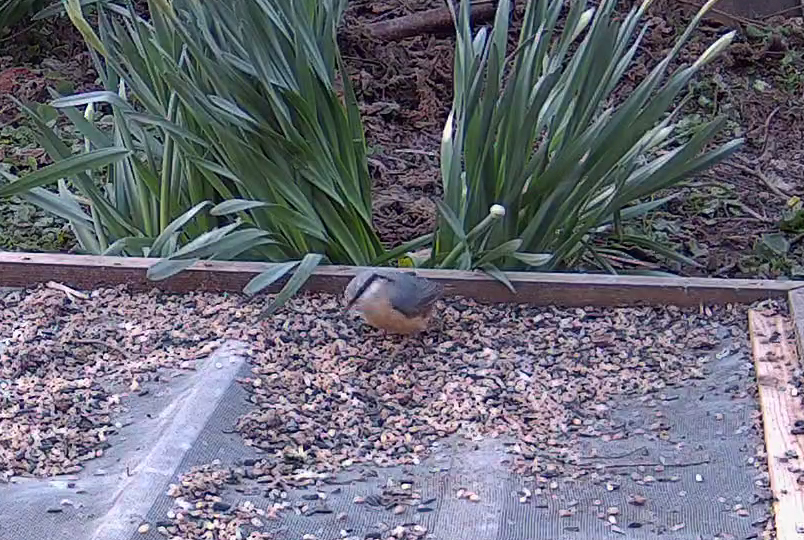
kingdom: Animalia
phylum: Chordata
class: Aves
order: Passeriformes
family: Sittidae
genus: Sitta
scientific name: Sitta europaea
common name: Eurasian nuthatch
